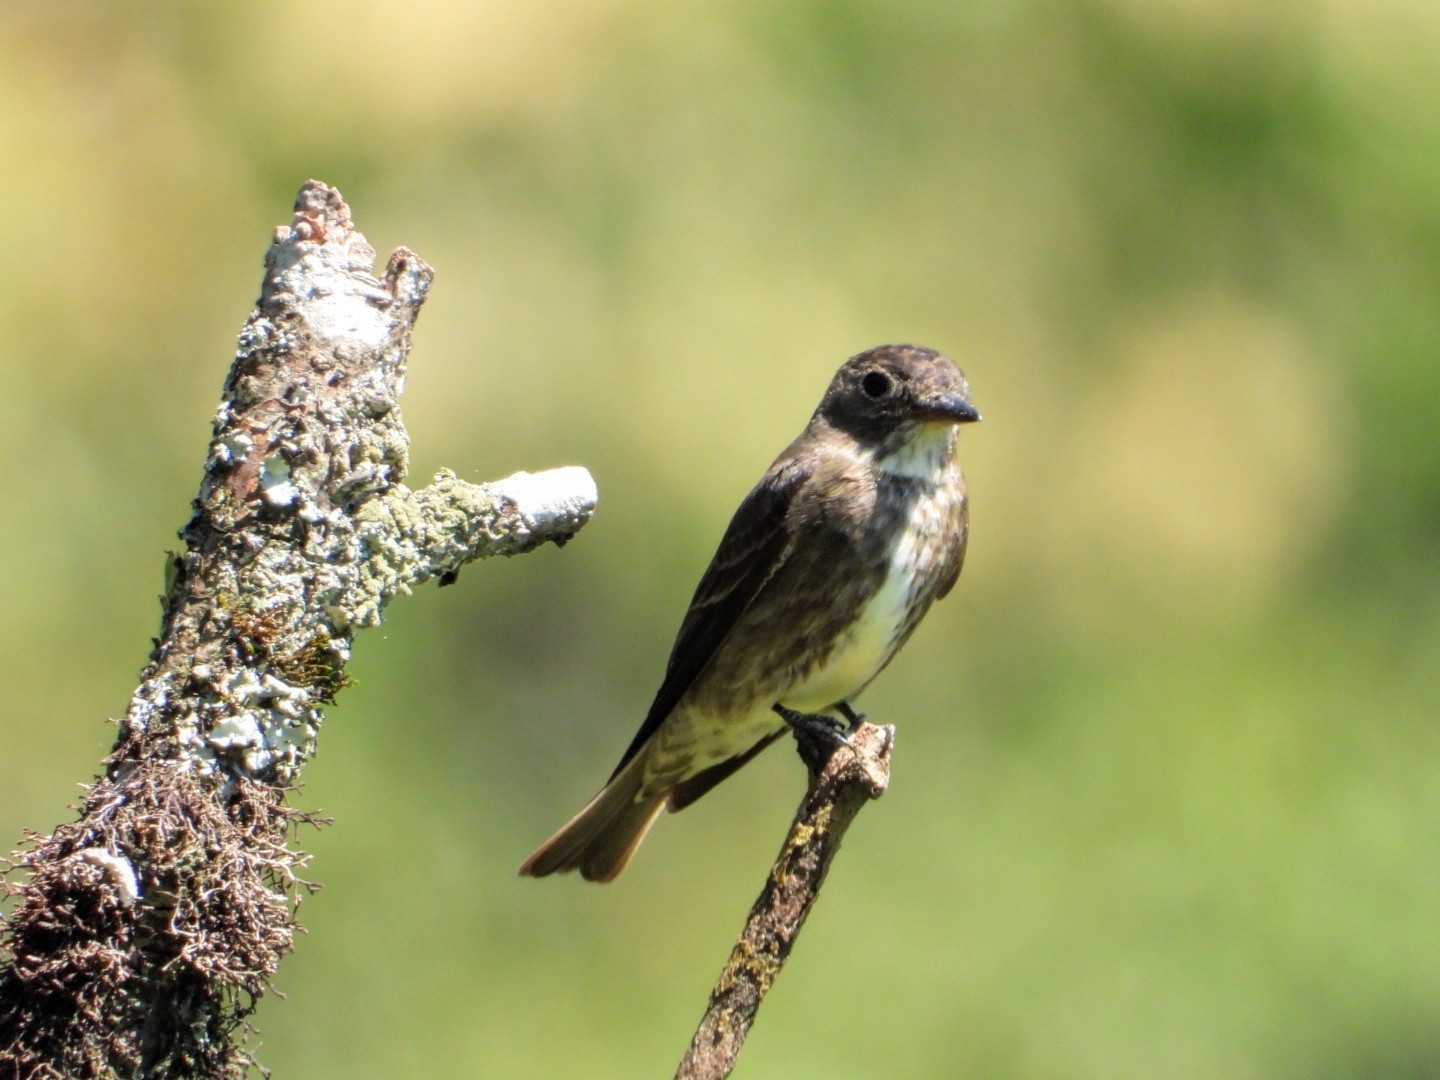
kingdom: Animalia
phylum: Chordata
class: Aves
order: Passeriformes
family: Tyrannidae
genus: Contopus
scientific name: Contopus cooperi
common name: Olive-sided flycatcher
